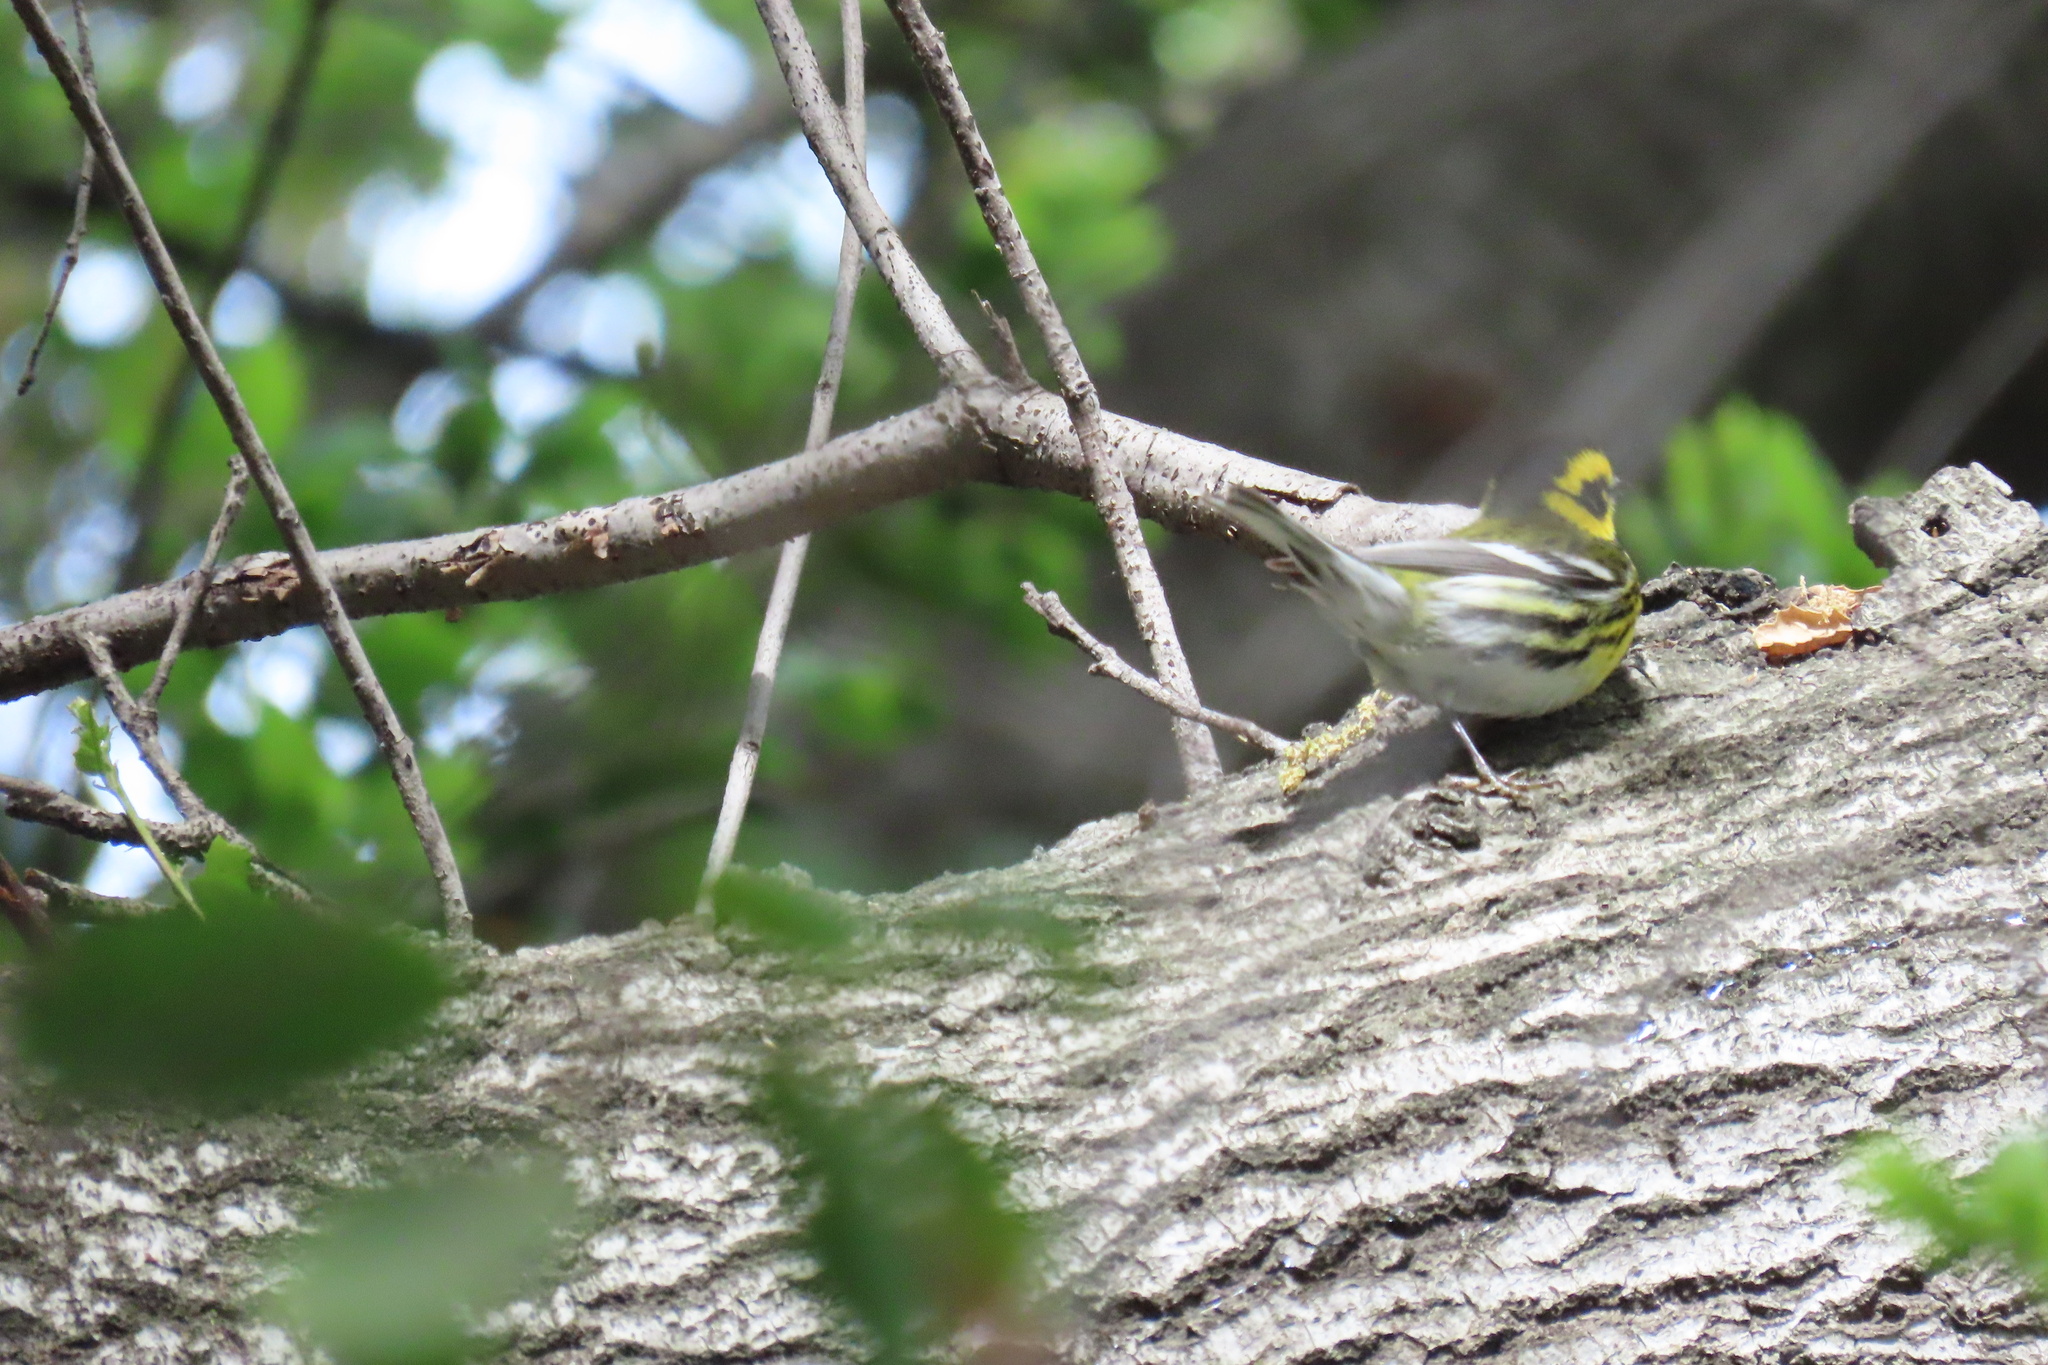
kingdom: Animalia
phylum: Chordata
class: Aves
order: Passeriformes
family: Parulidae
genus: Setophaga
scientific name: Setophaga townsendi
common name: Townsend's warbler
